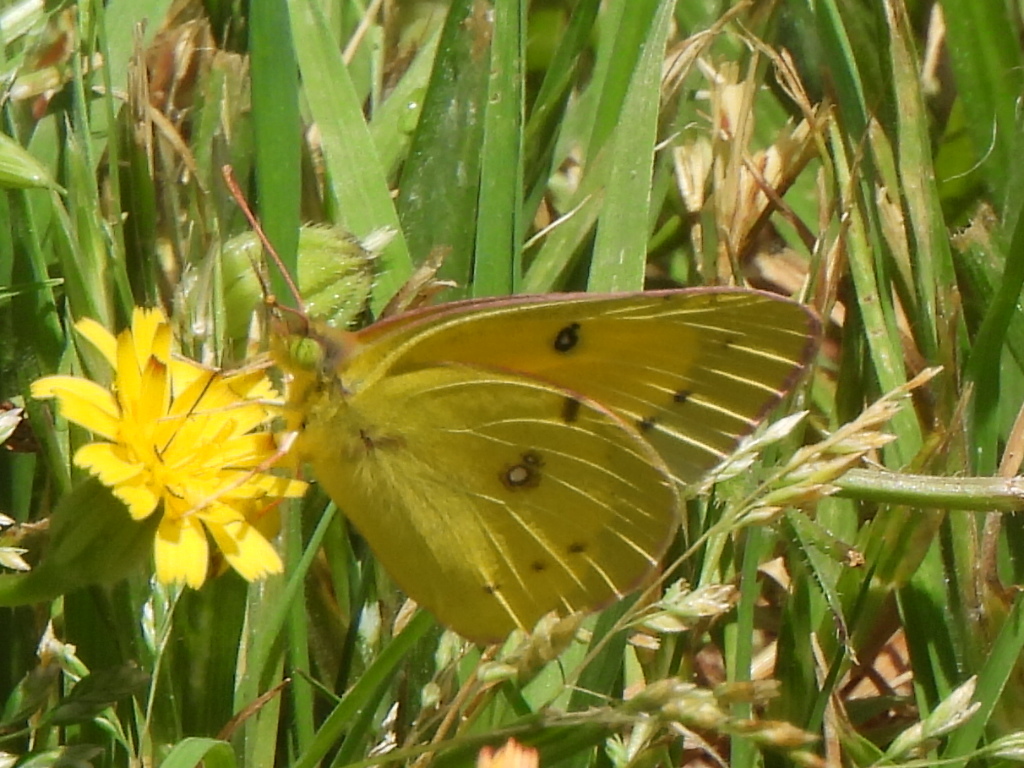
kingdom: Animalia
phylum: Arthropoda
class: Insecta
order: Lepidoptera
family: Pieridae
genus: Colias
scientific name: Colias eurytheme
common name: Alfalfa butterfly
